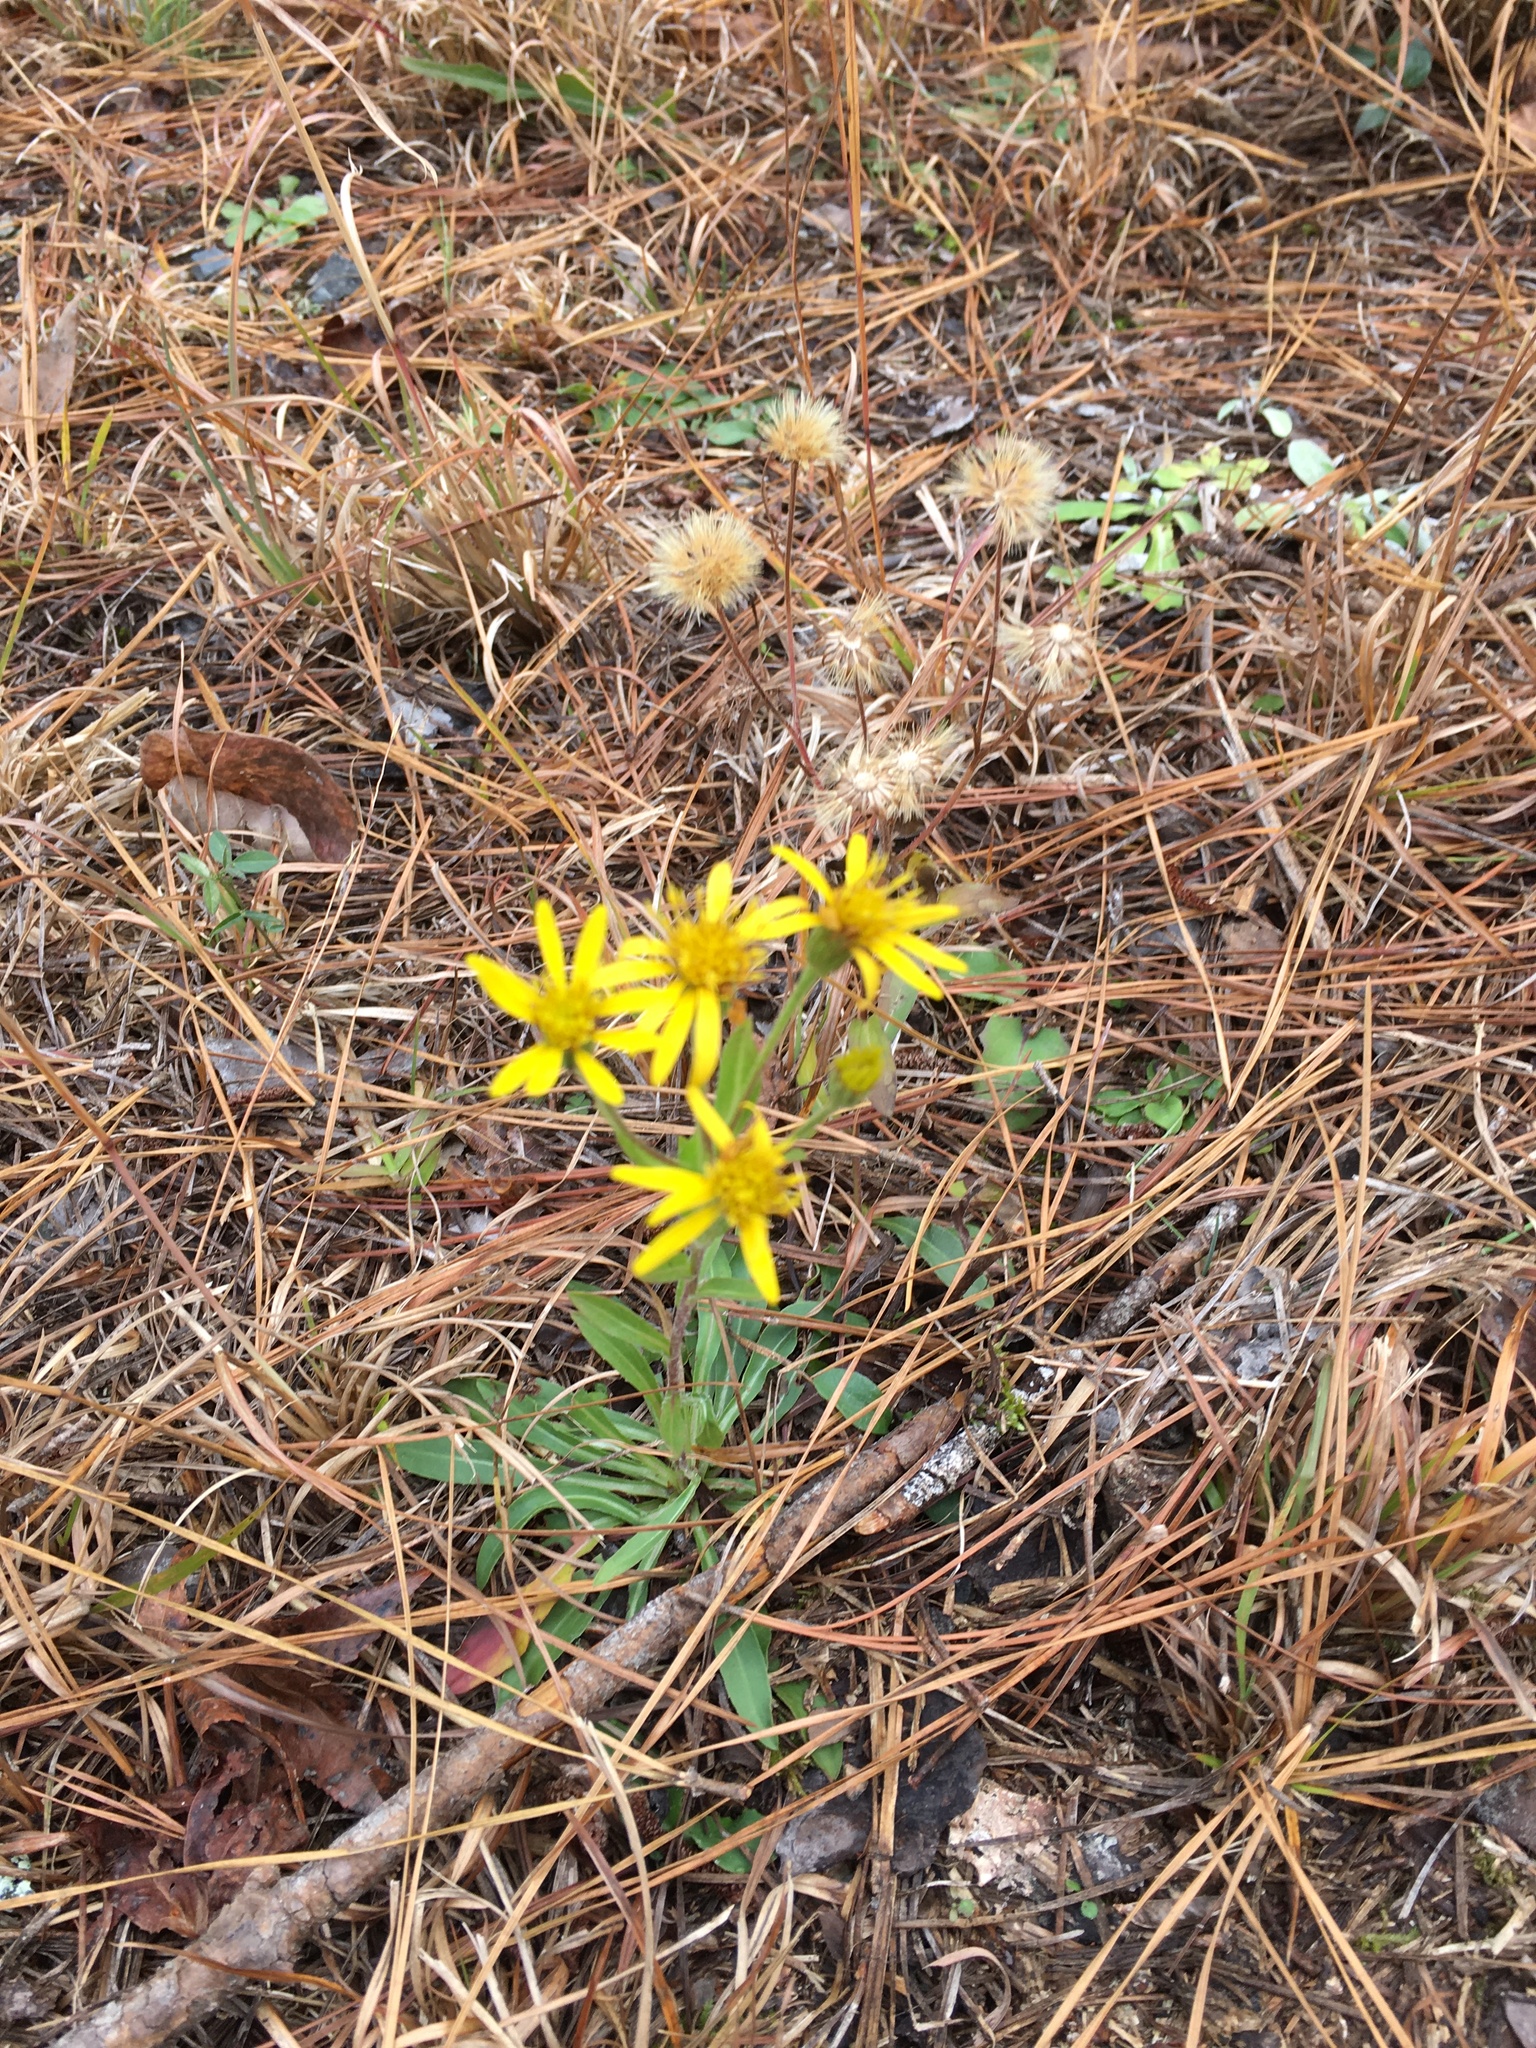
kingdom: Plantae
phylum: Tracheophyta
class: Magnoliopsida
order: Asterales
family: Asteraceae
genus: Chrysopsis
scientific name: Chrysopsis mariana
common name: Maryland golden-aster
